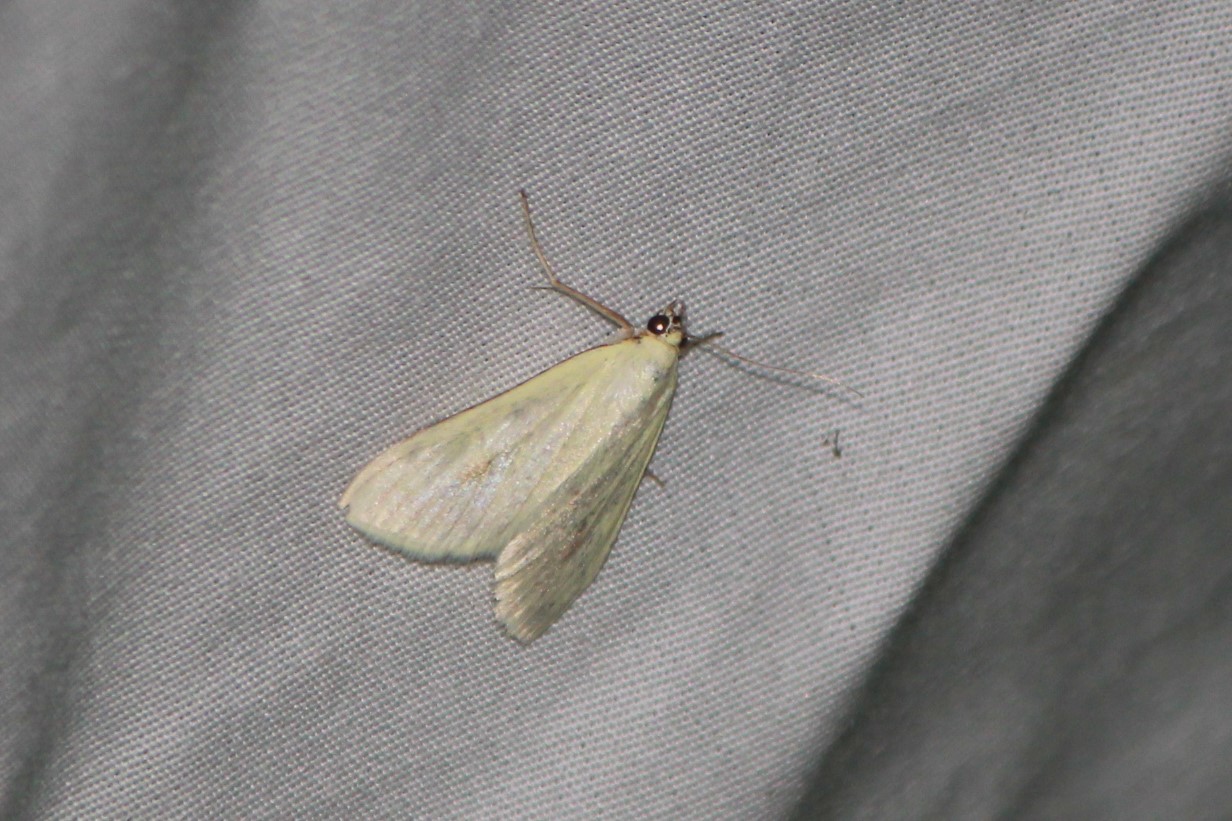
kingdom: Animalia
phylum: Arthropoda
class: Insecta
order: Lepidoptera
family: Crambidae
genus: Sitochroa
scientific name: Sitochroa palealis
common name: Greenish-yellow sitochroa moth
